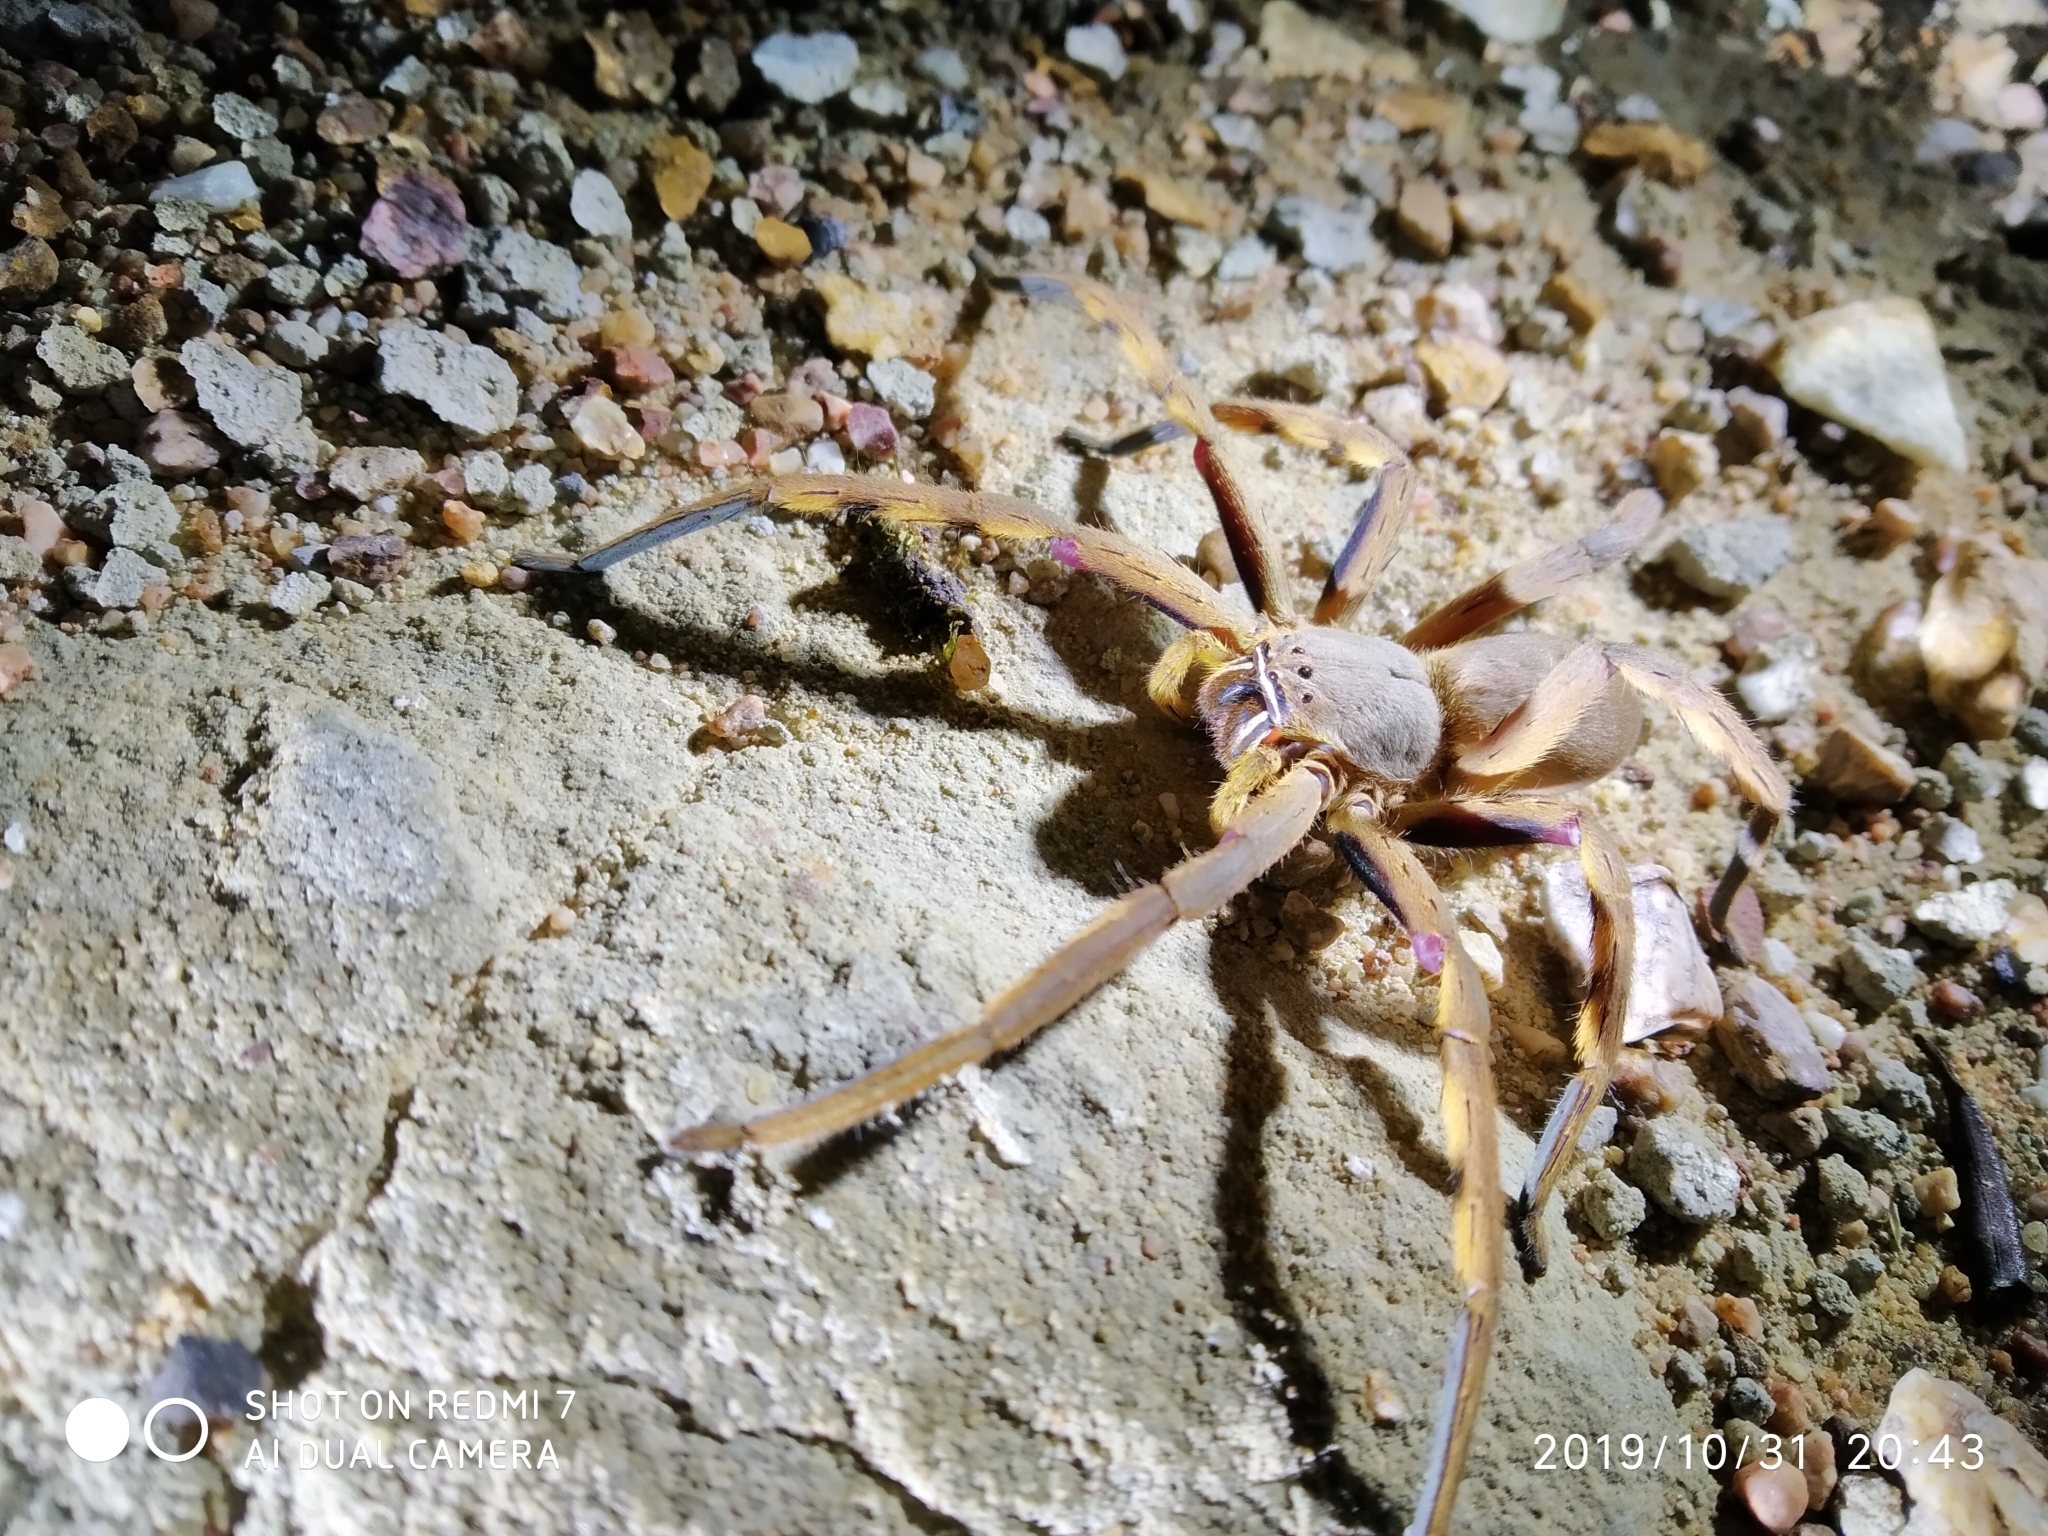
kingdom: Animalia
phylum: Arthropoda
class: Arachnida
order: Araneae
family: Sparassidae
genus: Palystes
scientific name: Palystes castaneus
